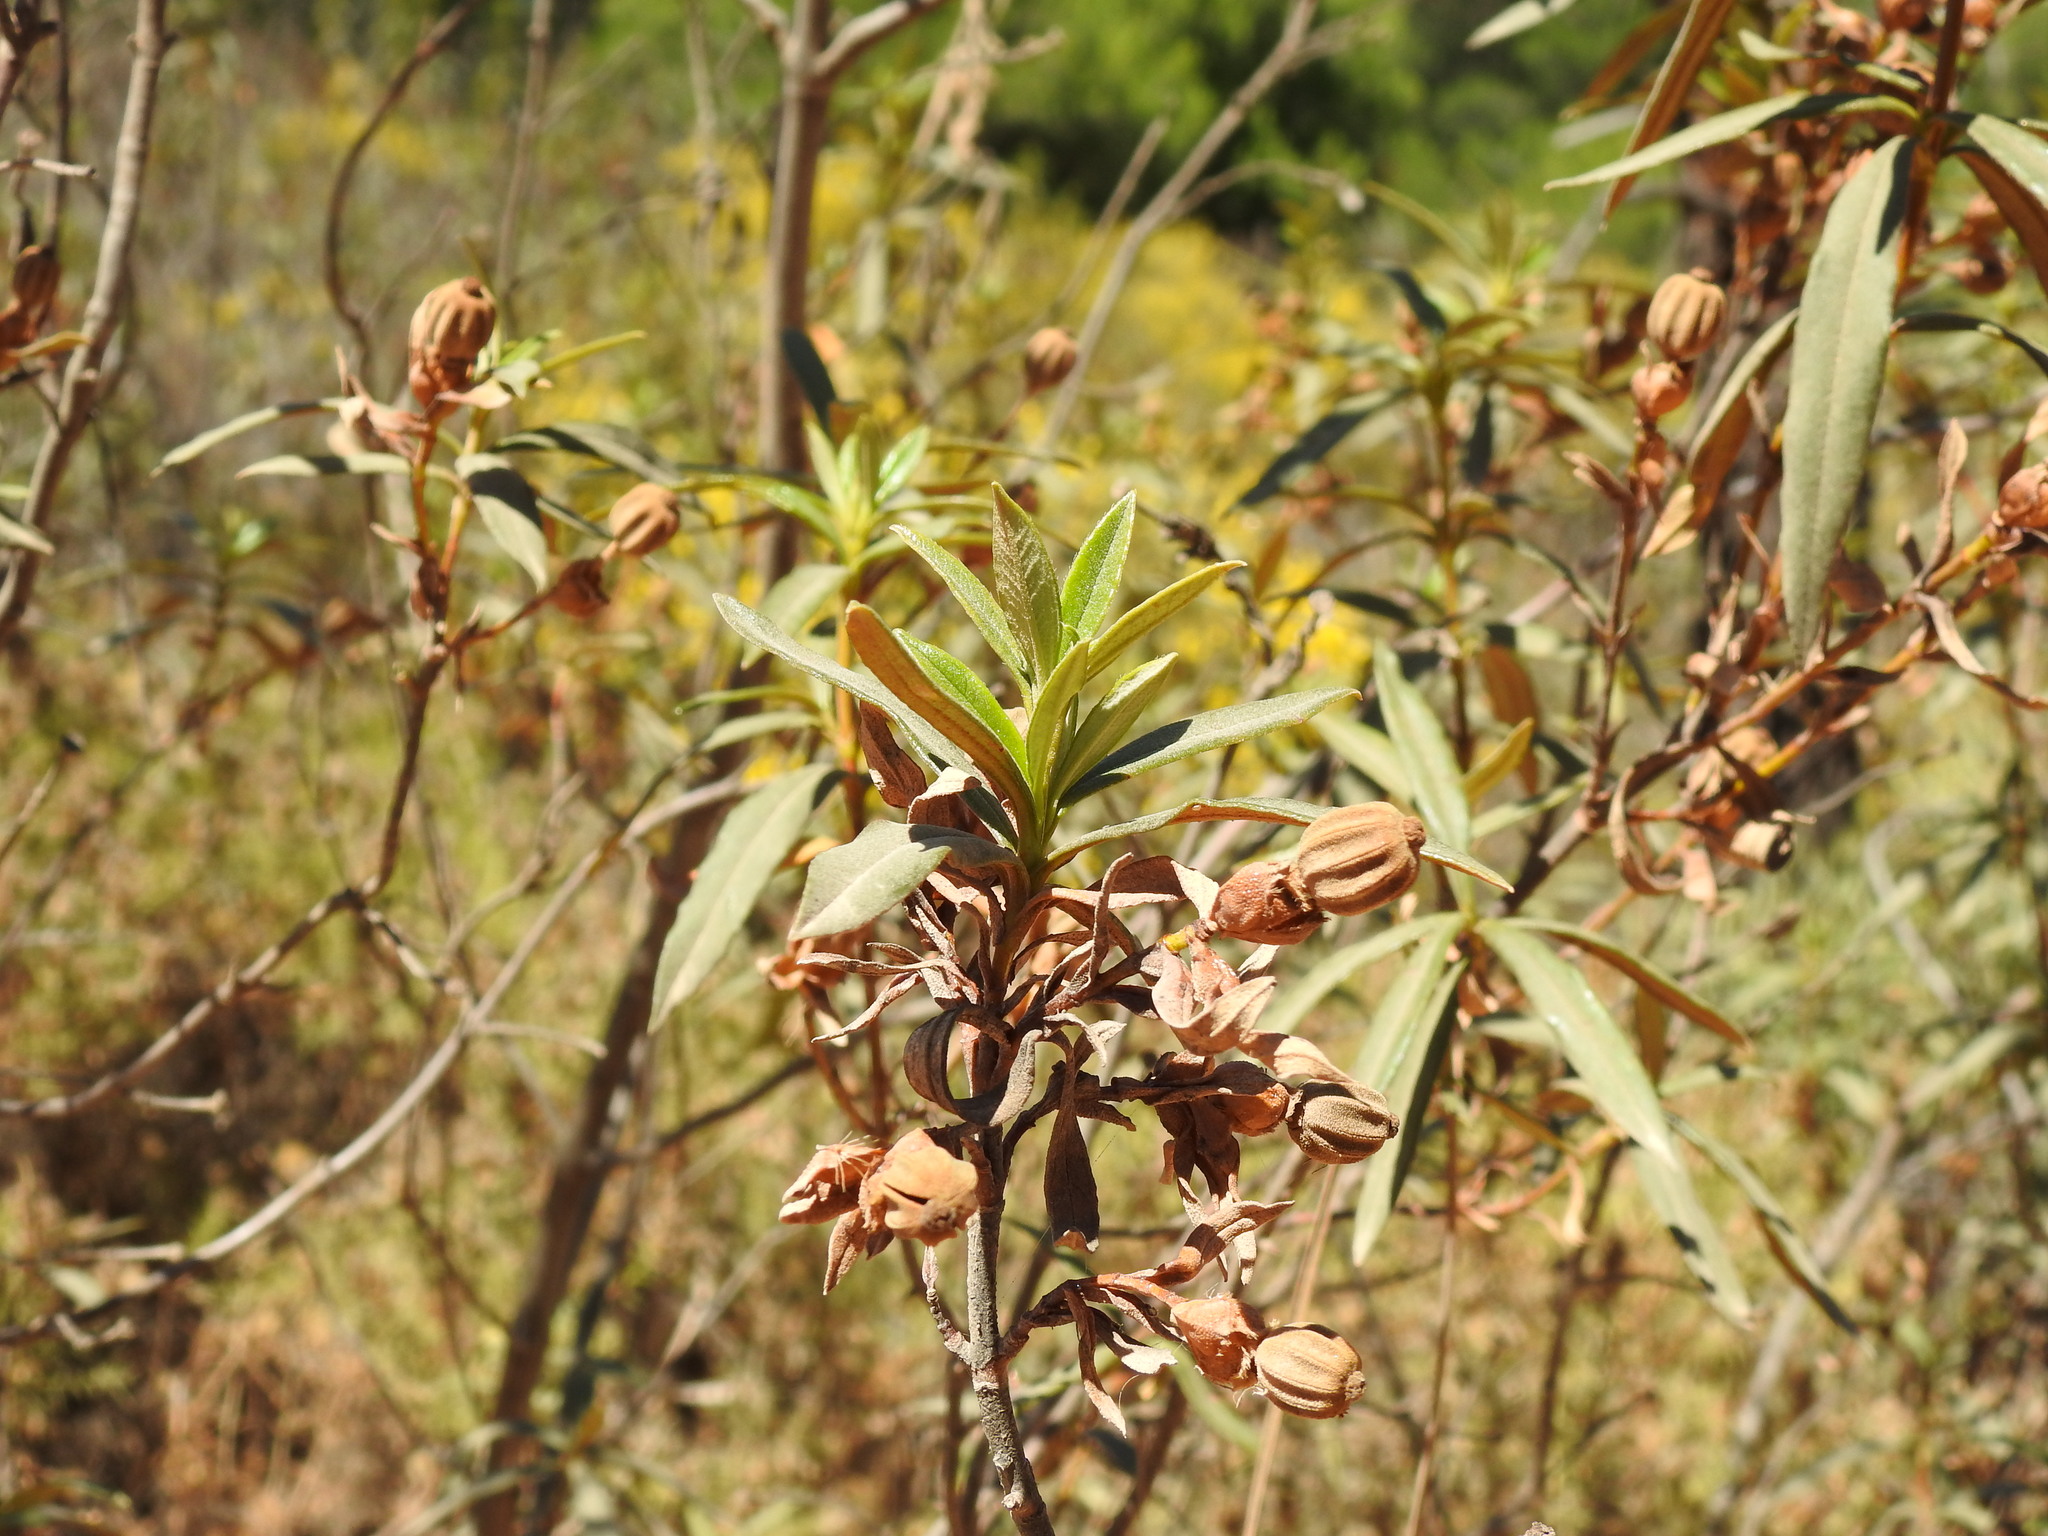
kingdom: Plantae
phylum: Tracheophyta
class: Magnoliopsida
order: Malvales
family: Cistaceae
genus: Cistus
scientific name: Cistus ladanifer
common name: Common gum cistus
